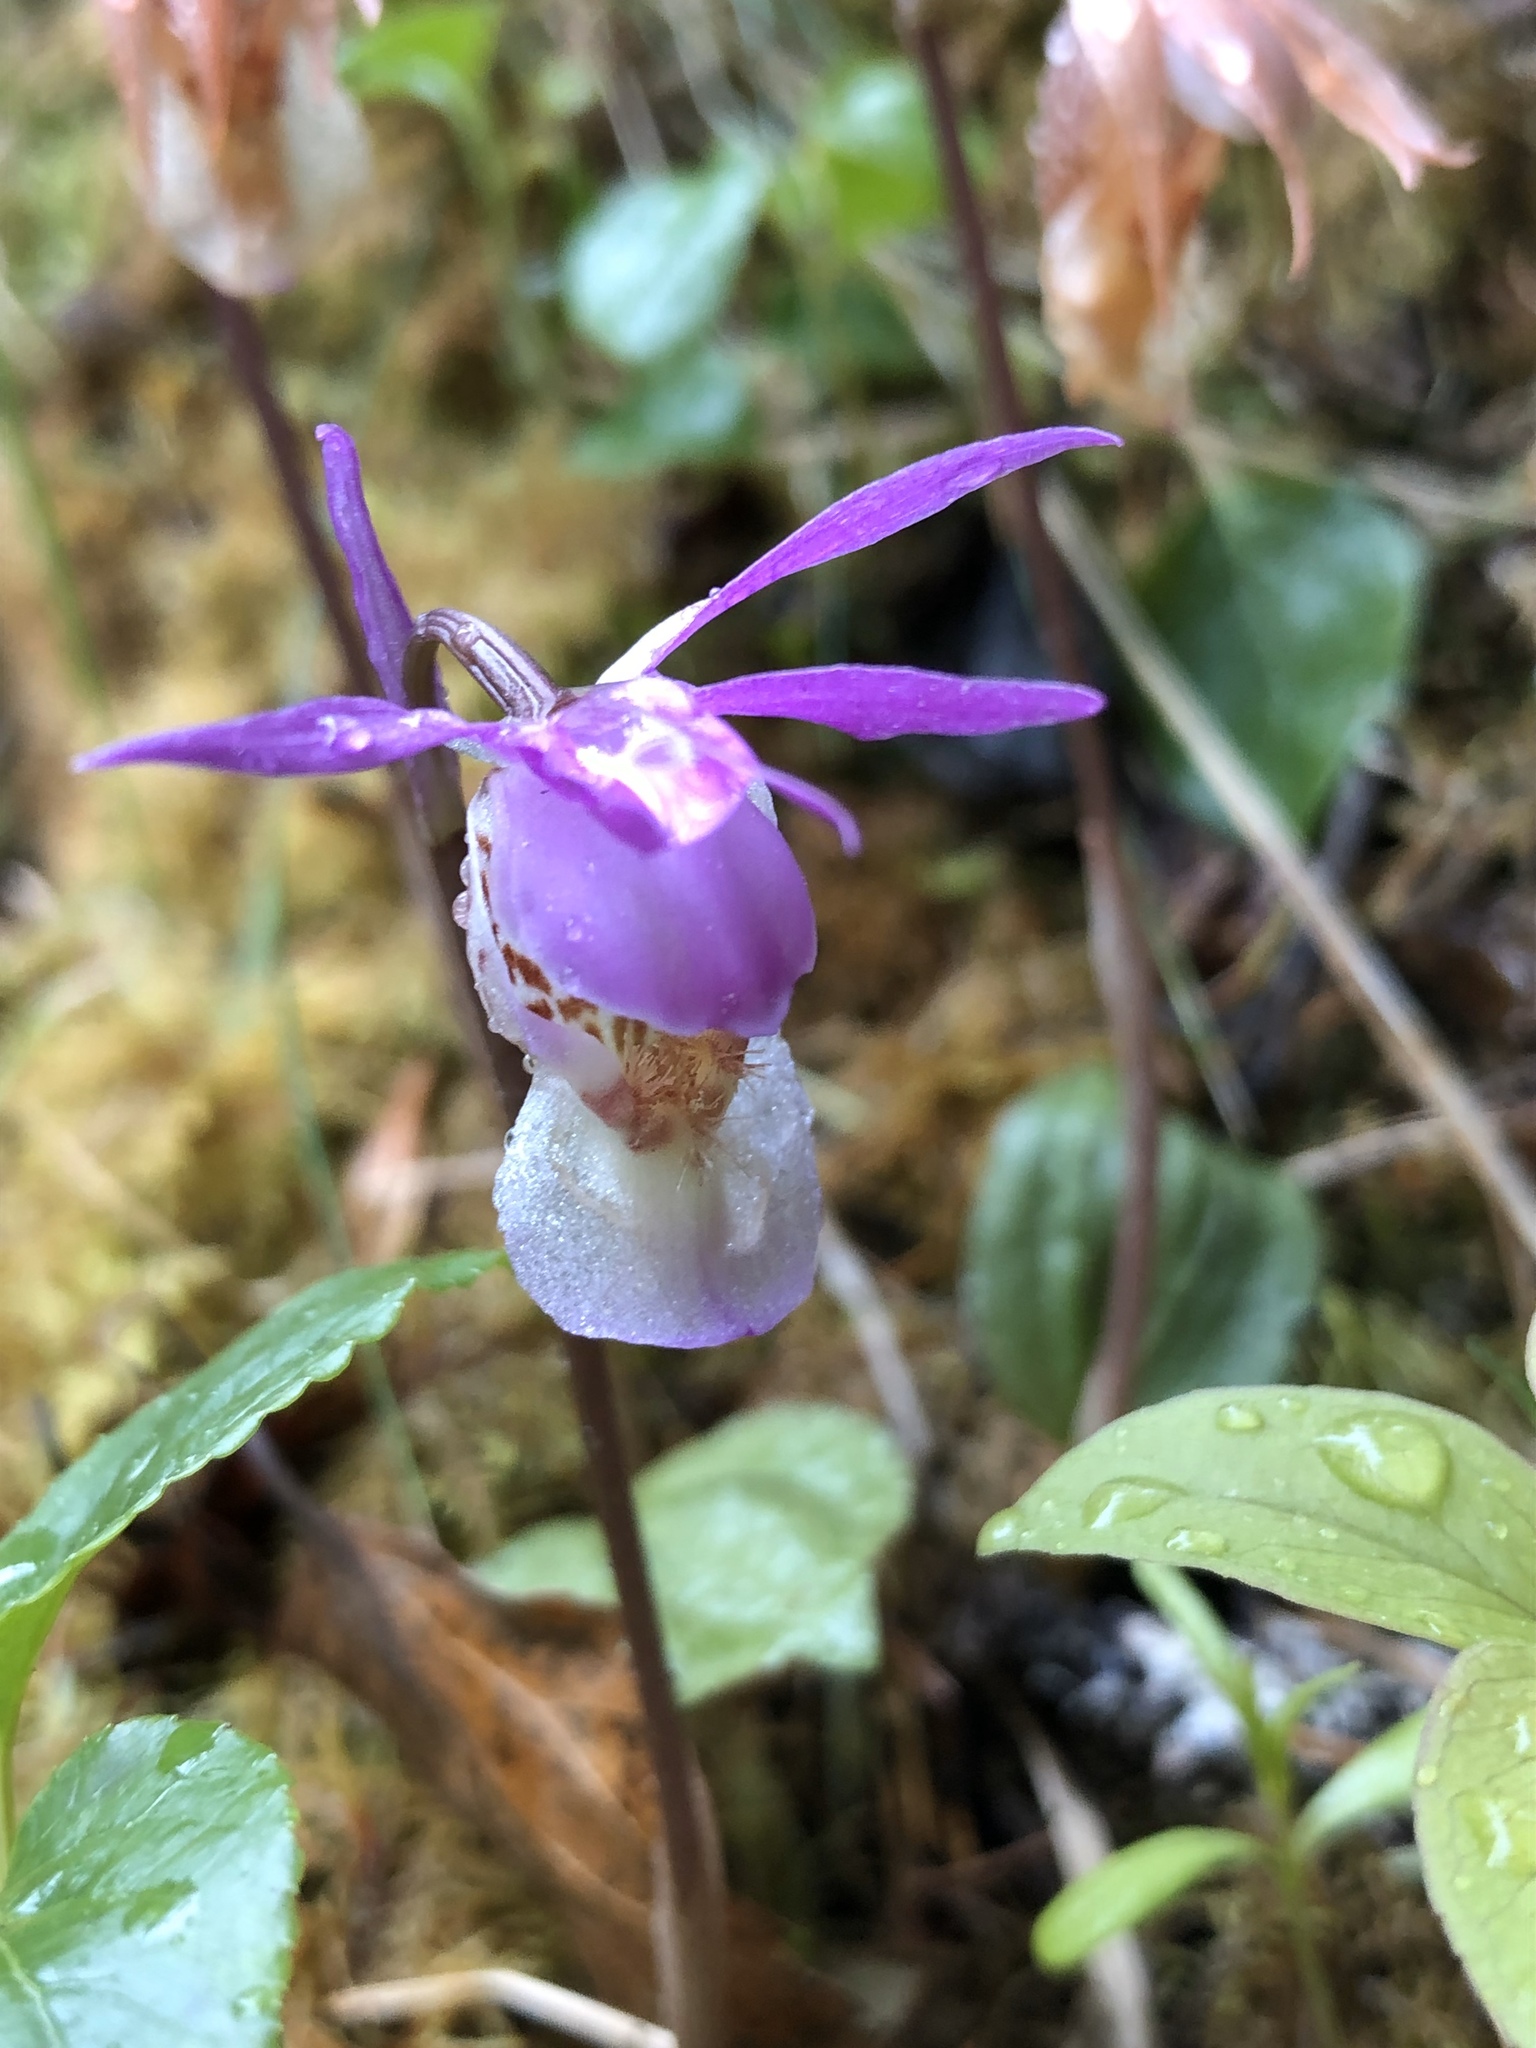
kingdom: Plantae
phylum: Tracheophyta
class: Liliopsida
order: Asparagales
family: Orchidaceae
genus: Calypso
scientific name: Calypso bulbosa
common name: Calypso
